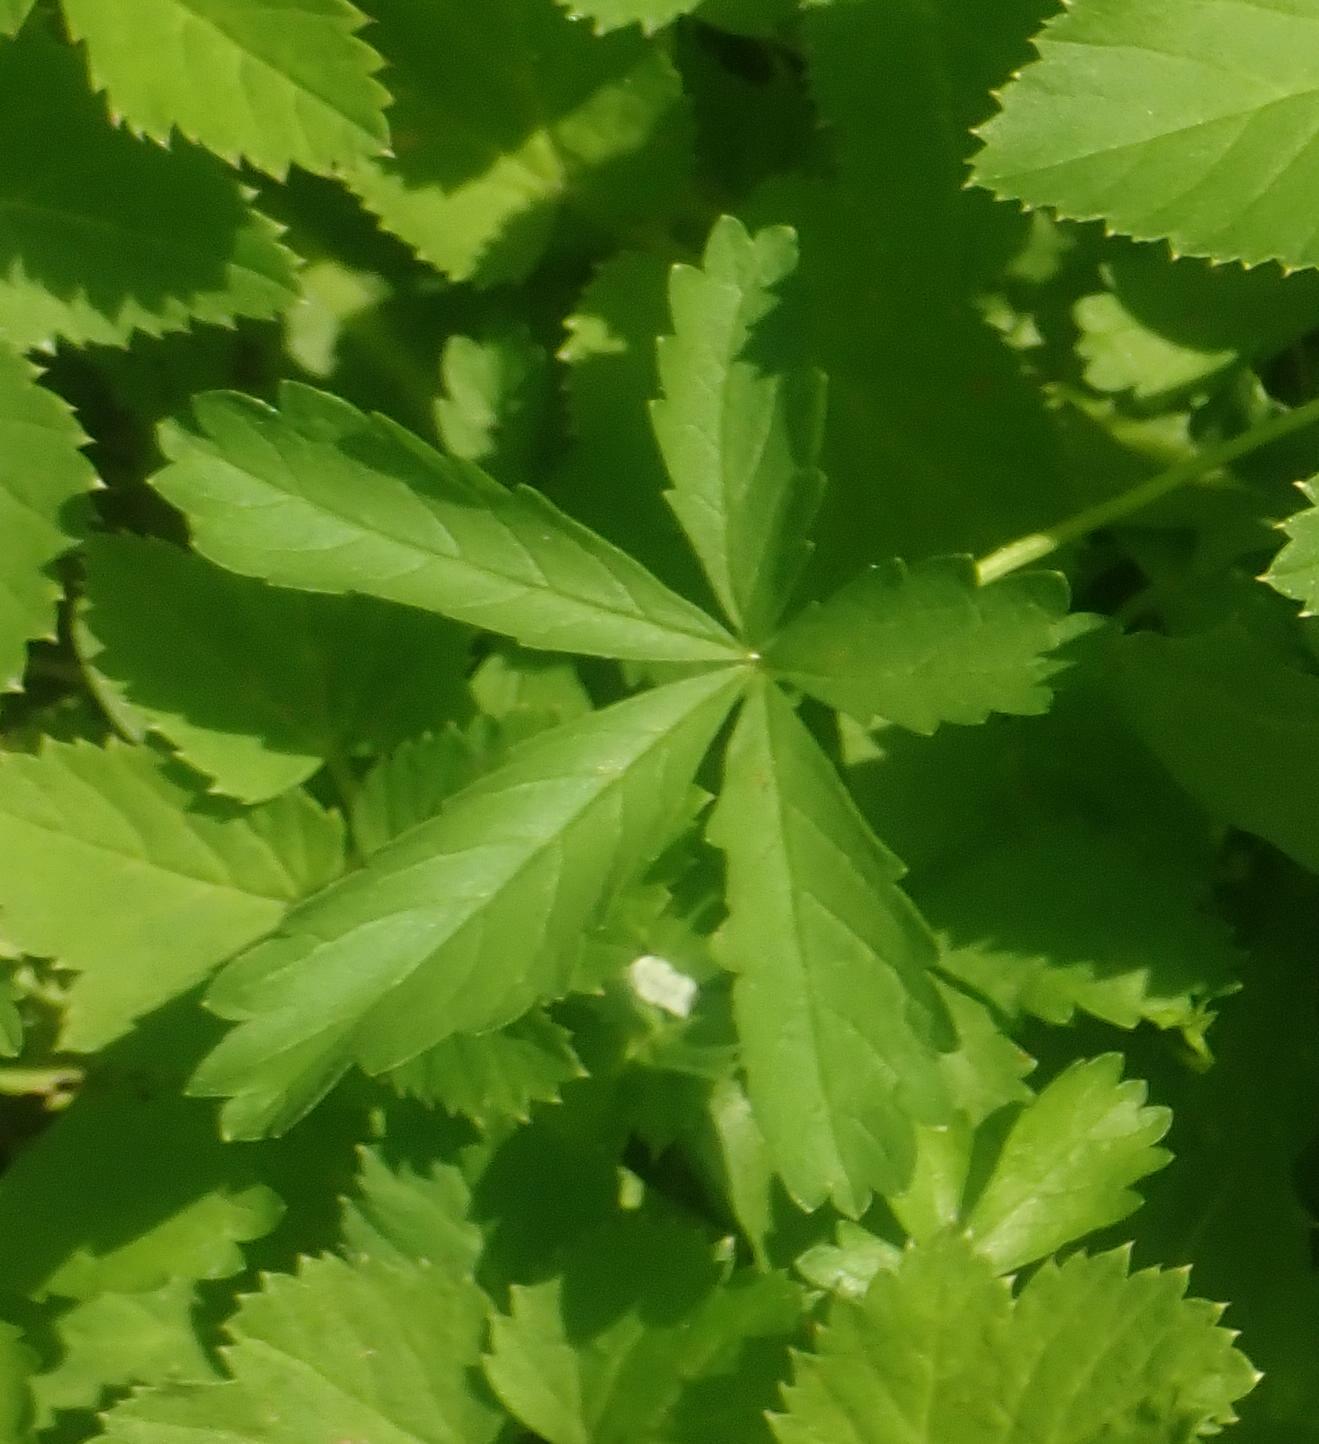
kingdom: Plantae
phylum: Tracheophyta
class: Magnoliopsida
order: Rosales
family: Rosaceae
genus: Potentilla
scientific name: Potentilla reptans
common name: Creeping cinquefoil
